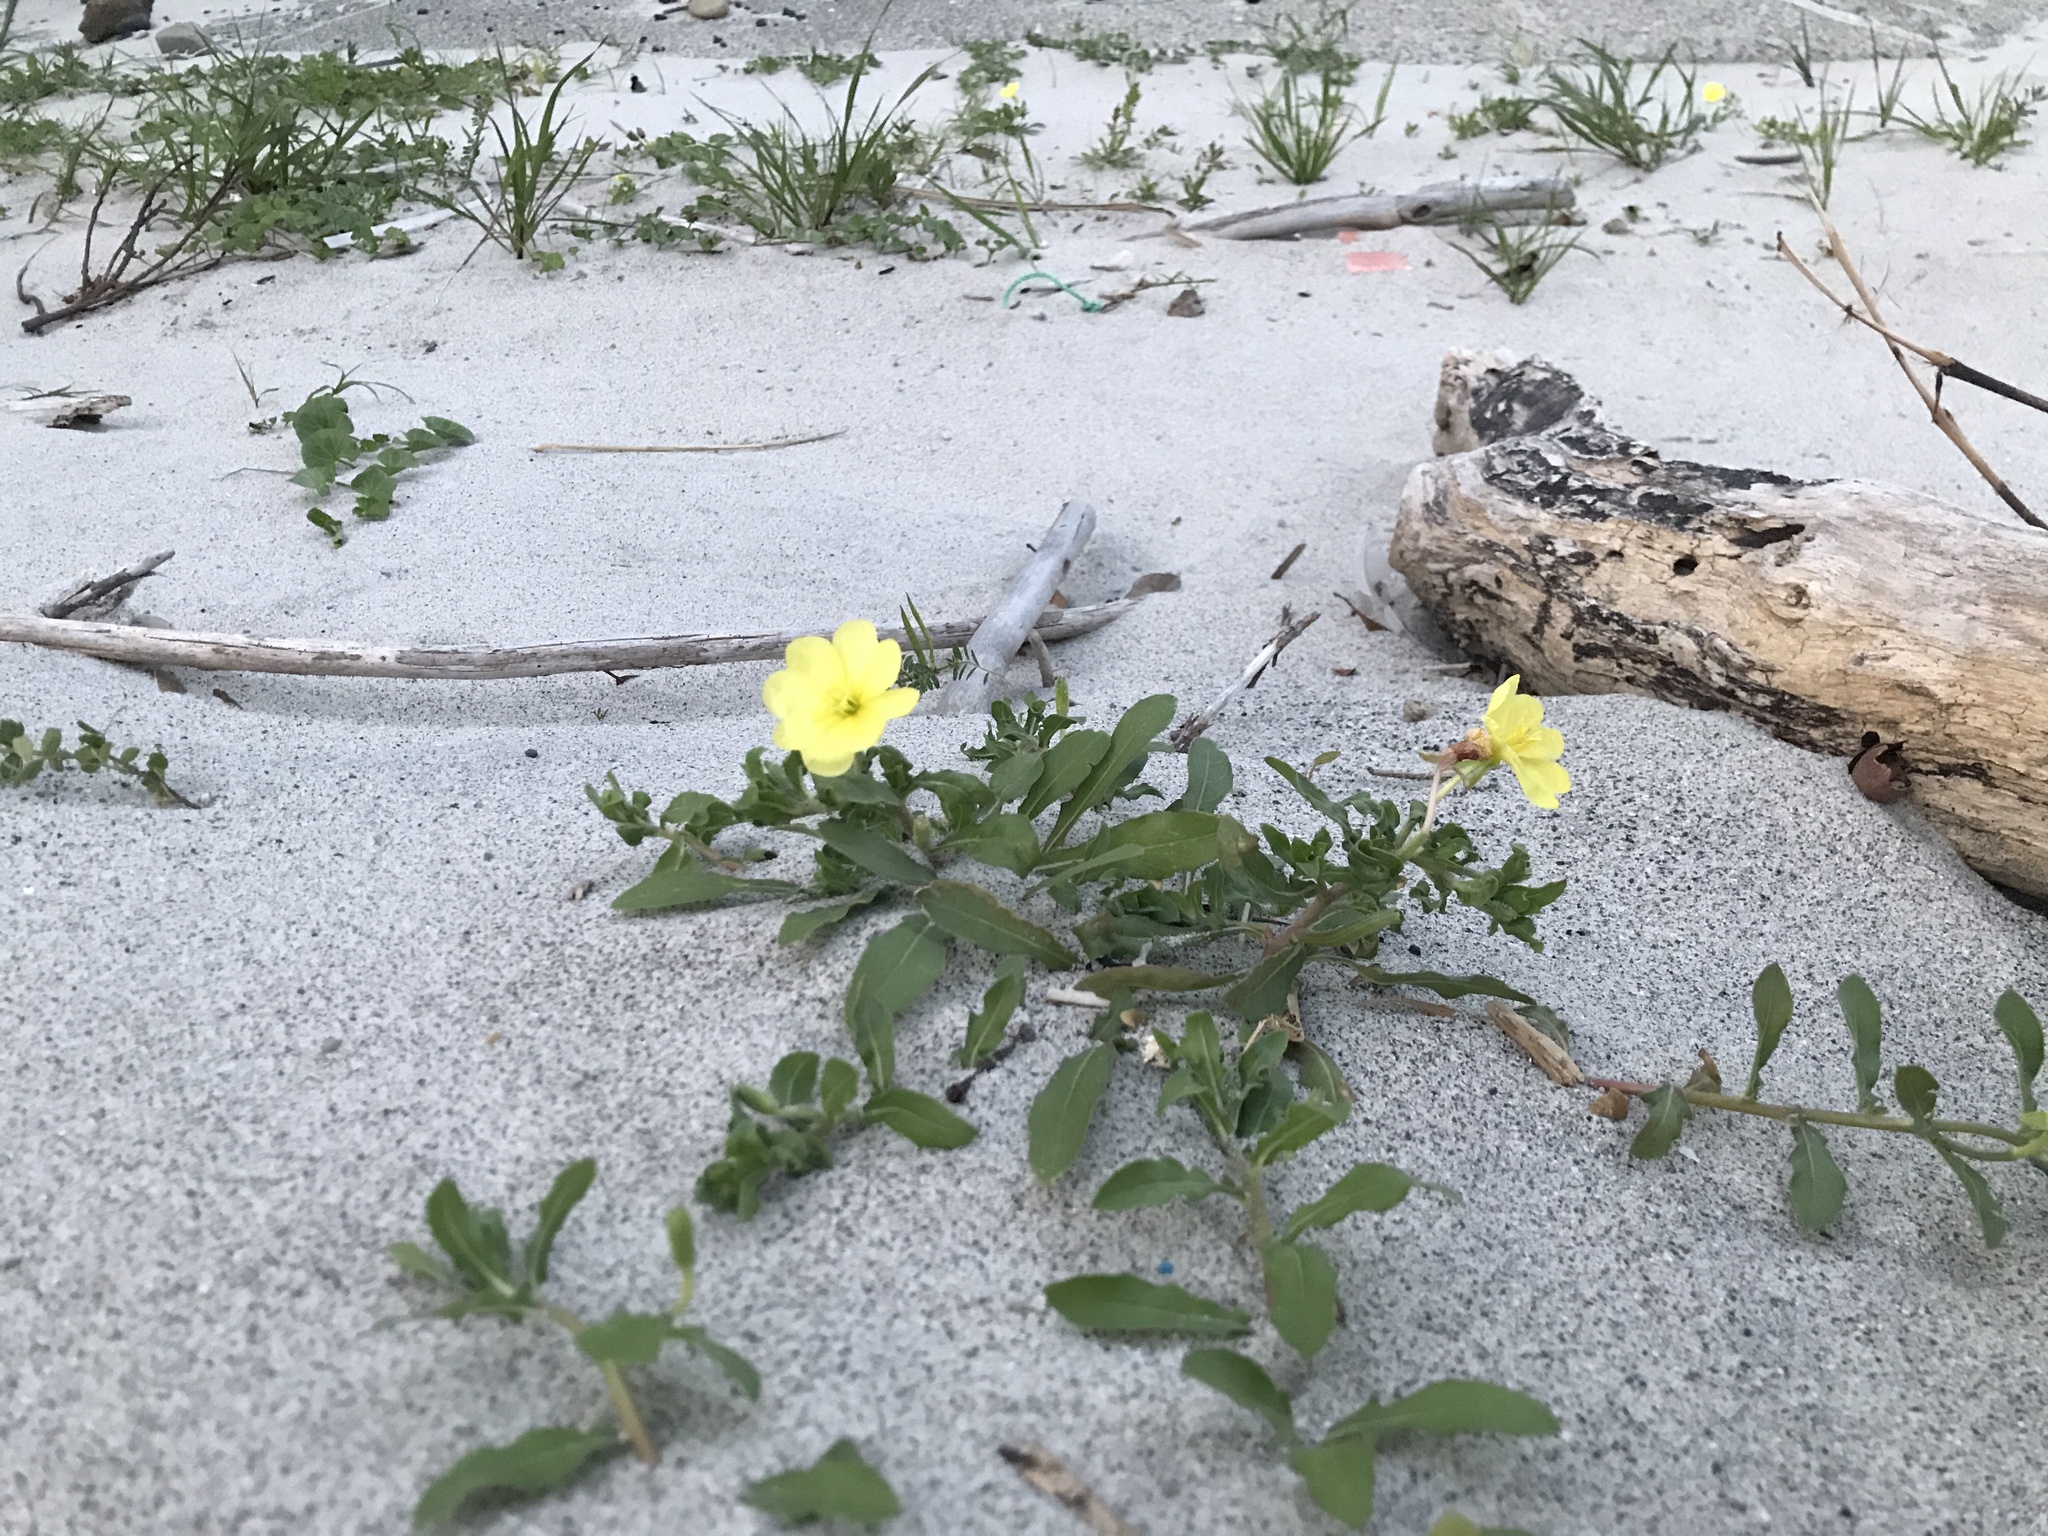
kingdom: Plantae
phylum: Tracheophyta
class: Magnoliopsida
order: Myrtales
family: Onagraceae
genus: Oenothera
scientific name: Oenothera laciniata
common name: Cut-leaved evening-primrose
